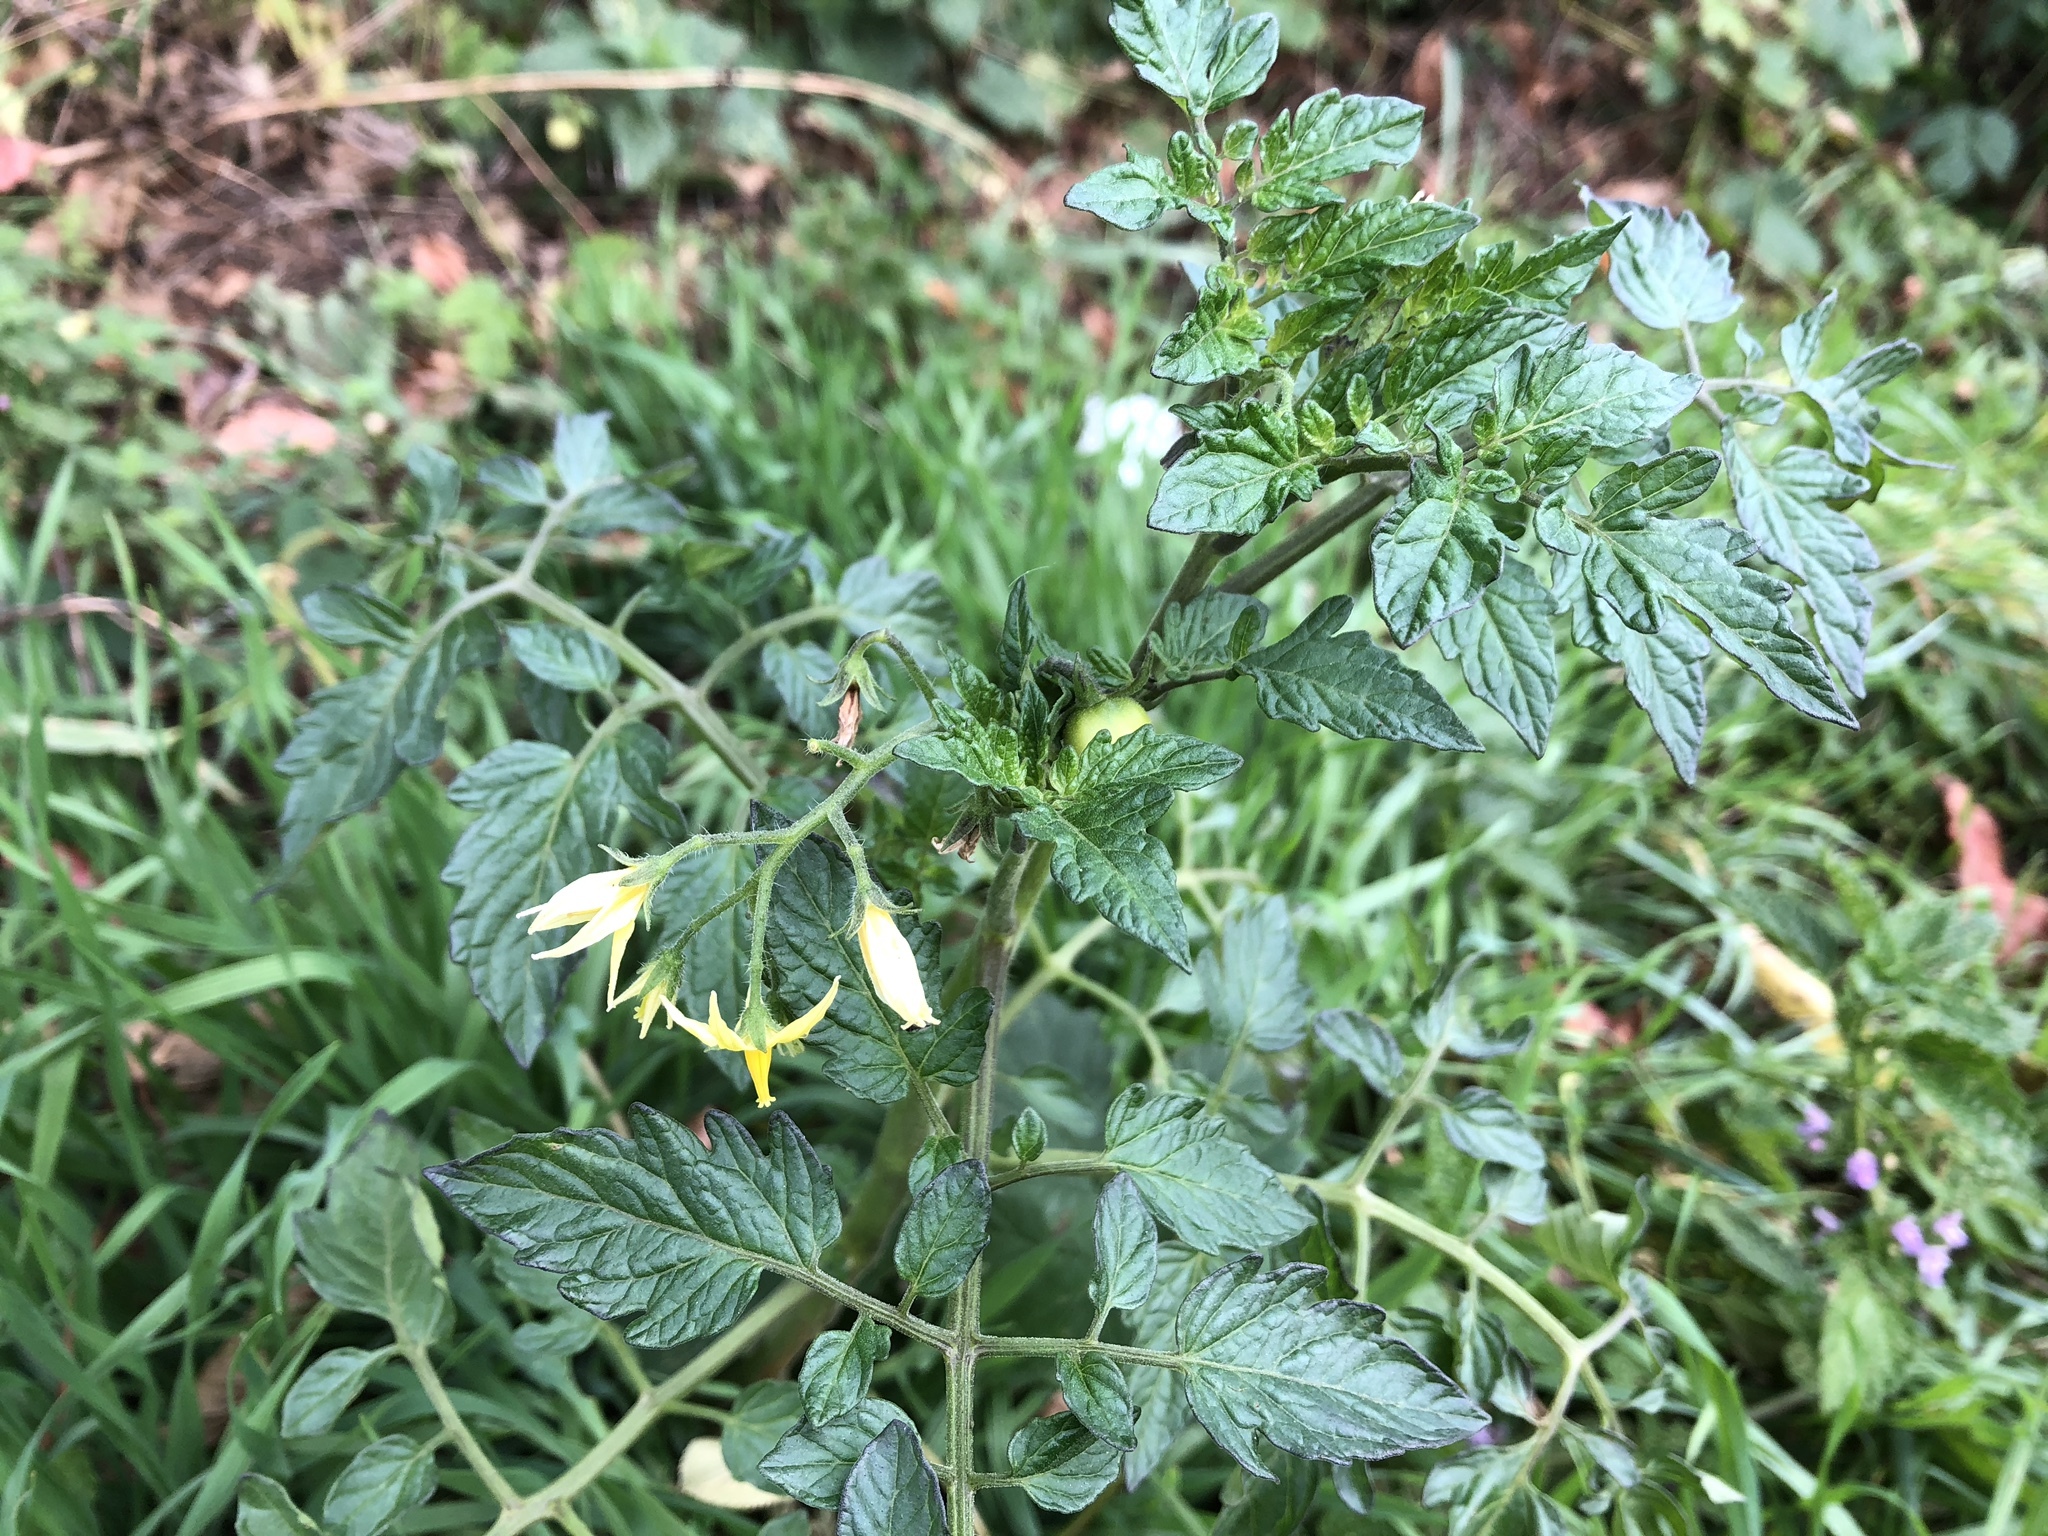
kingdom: Plantae
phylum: Tracheophyta
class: Magnoliopsida
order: Solanales
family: Solanaceae
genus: Solanum
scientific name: Solanum lycopersicum
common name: Garden tomato
